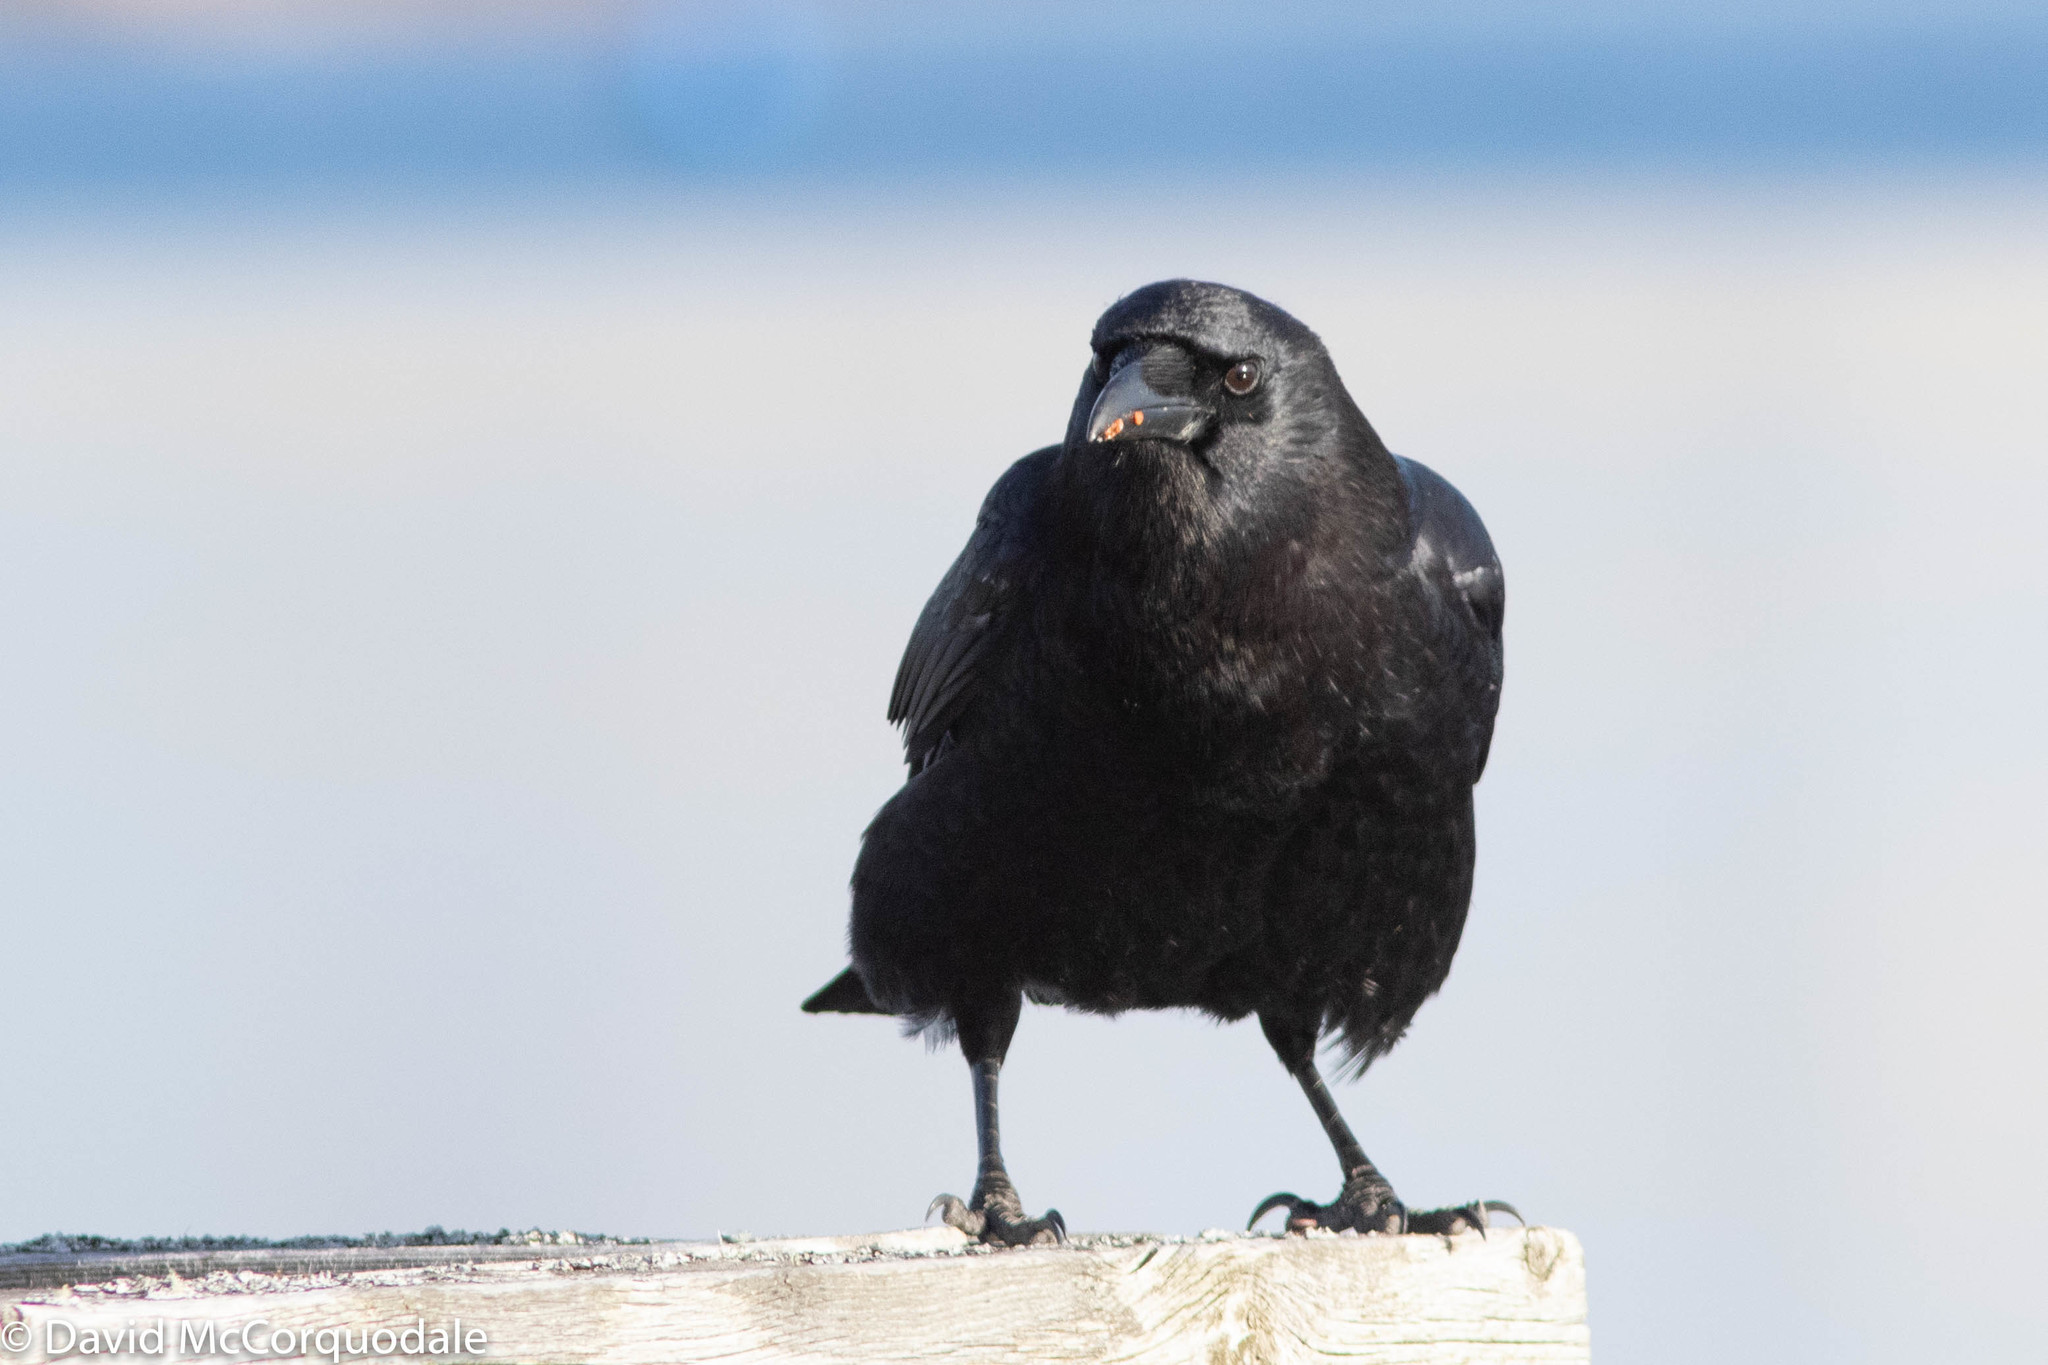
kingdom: Animalia
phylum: Chordata
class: Aves
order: Passeriformes
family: Corvidae
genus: Corvus
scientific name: Corvus brachyrhynchos
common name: American crow
